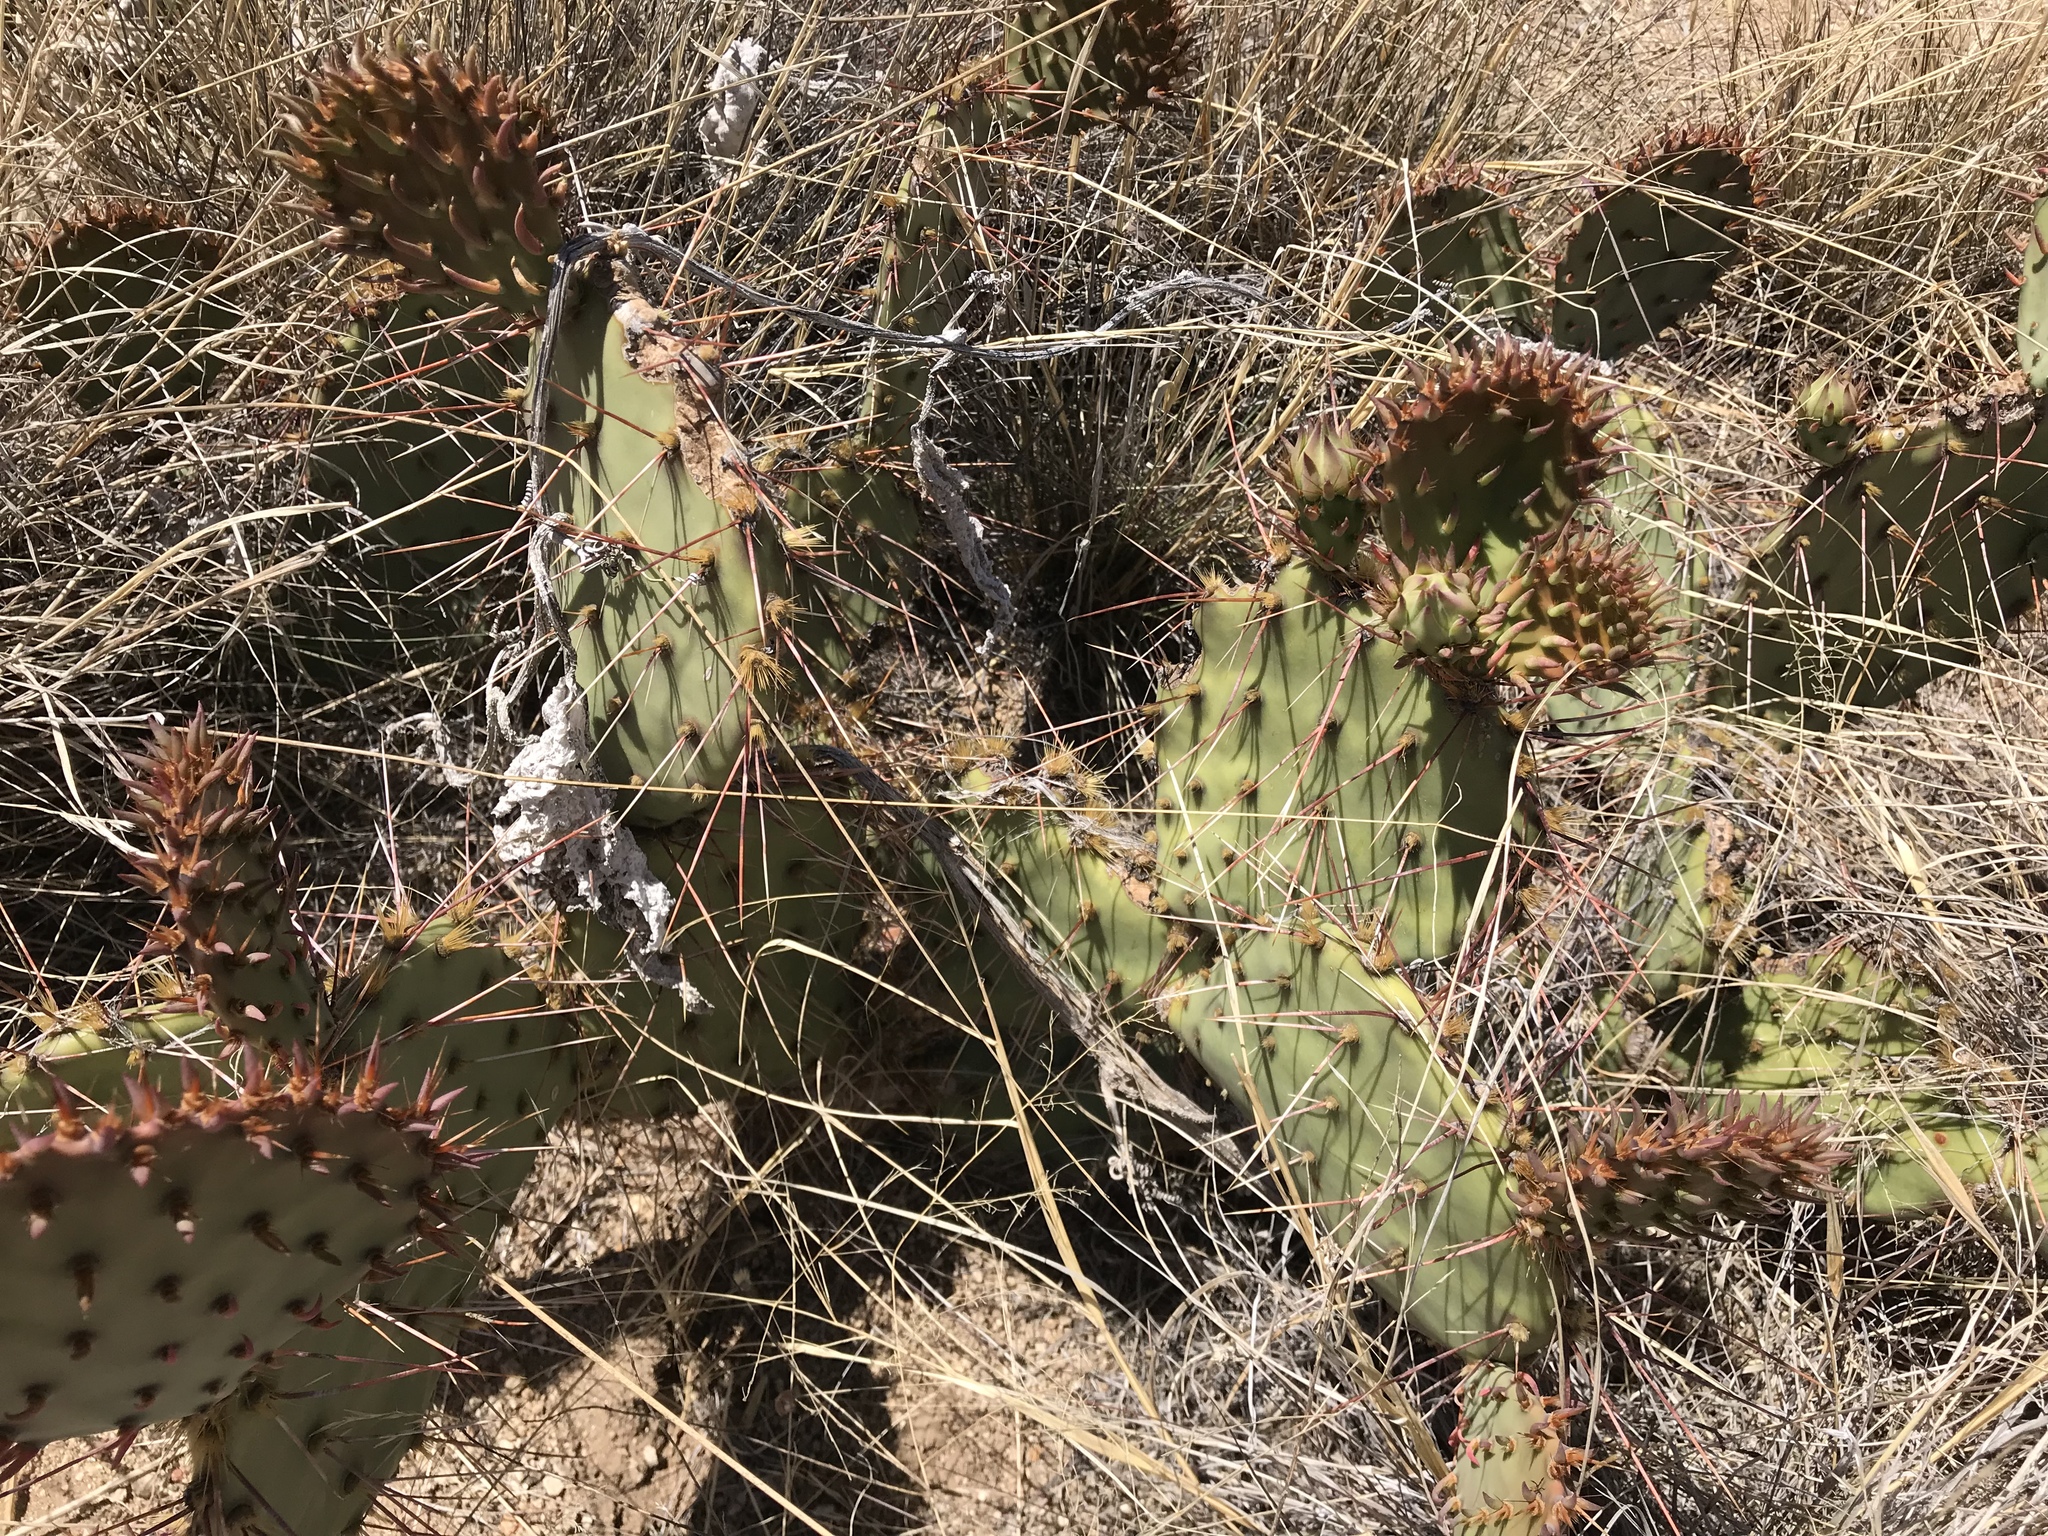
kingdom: Plantae
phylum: Tracheophyta
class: Magnoliopsida
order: Caryophyllales
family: Cactaceae
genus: Opuntia
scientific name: Opuntia phaeacantha
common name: New mexico prickly-pear
